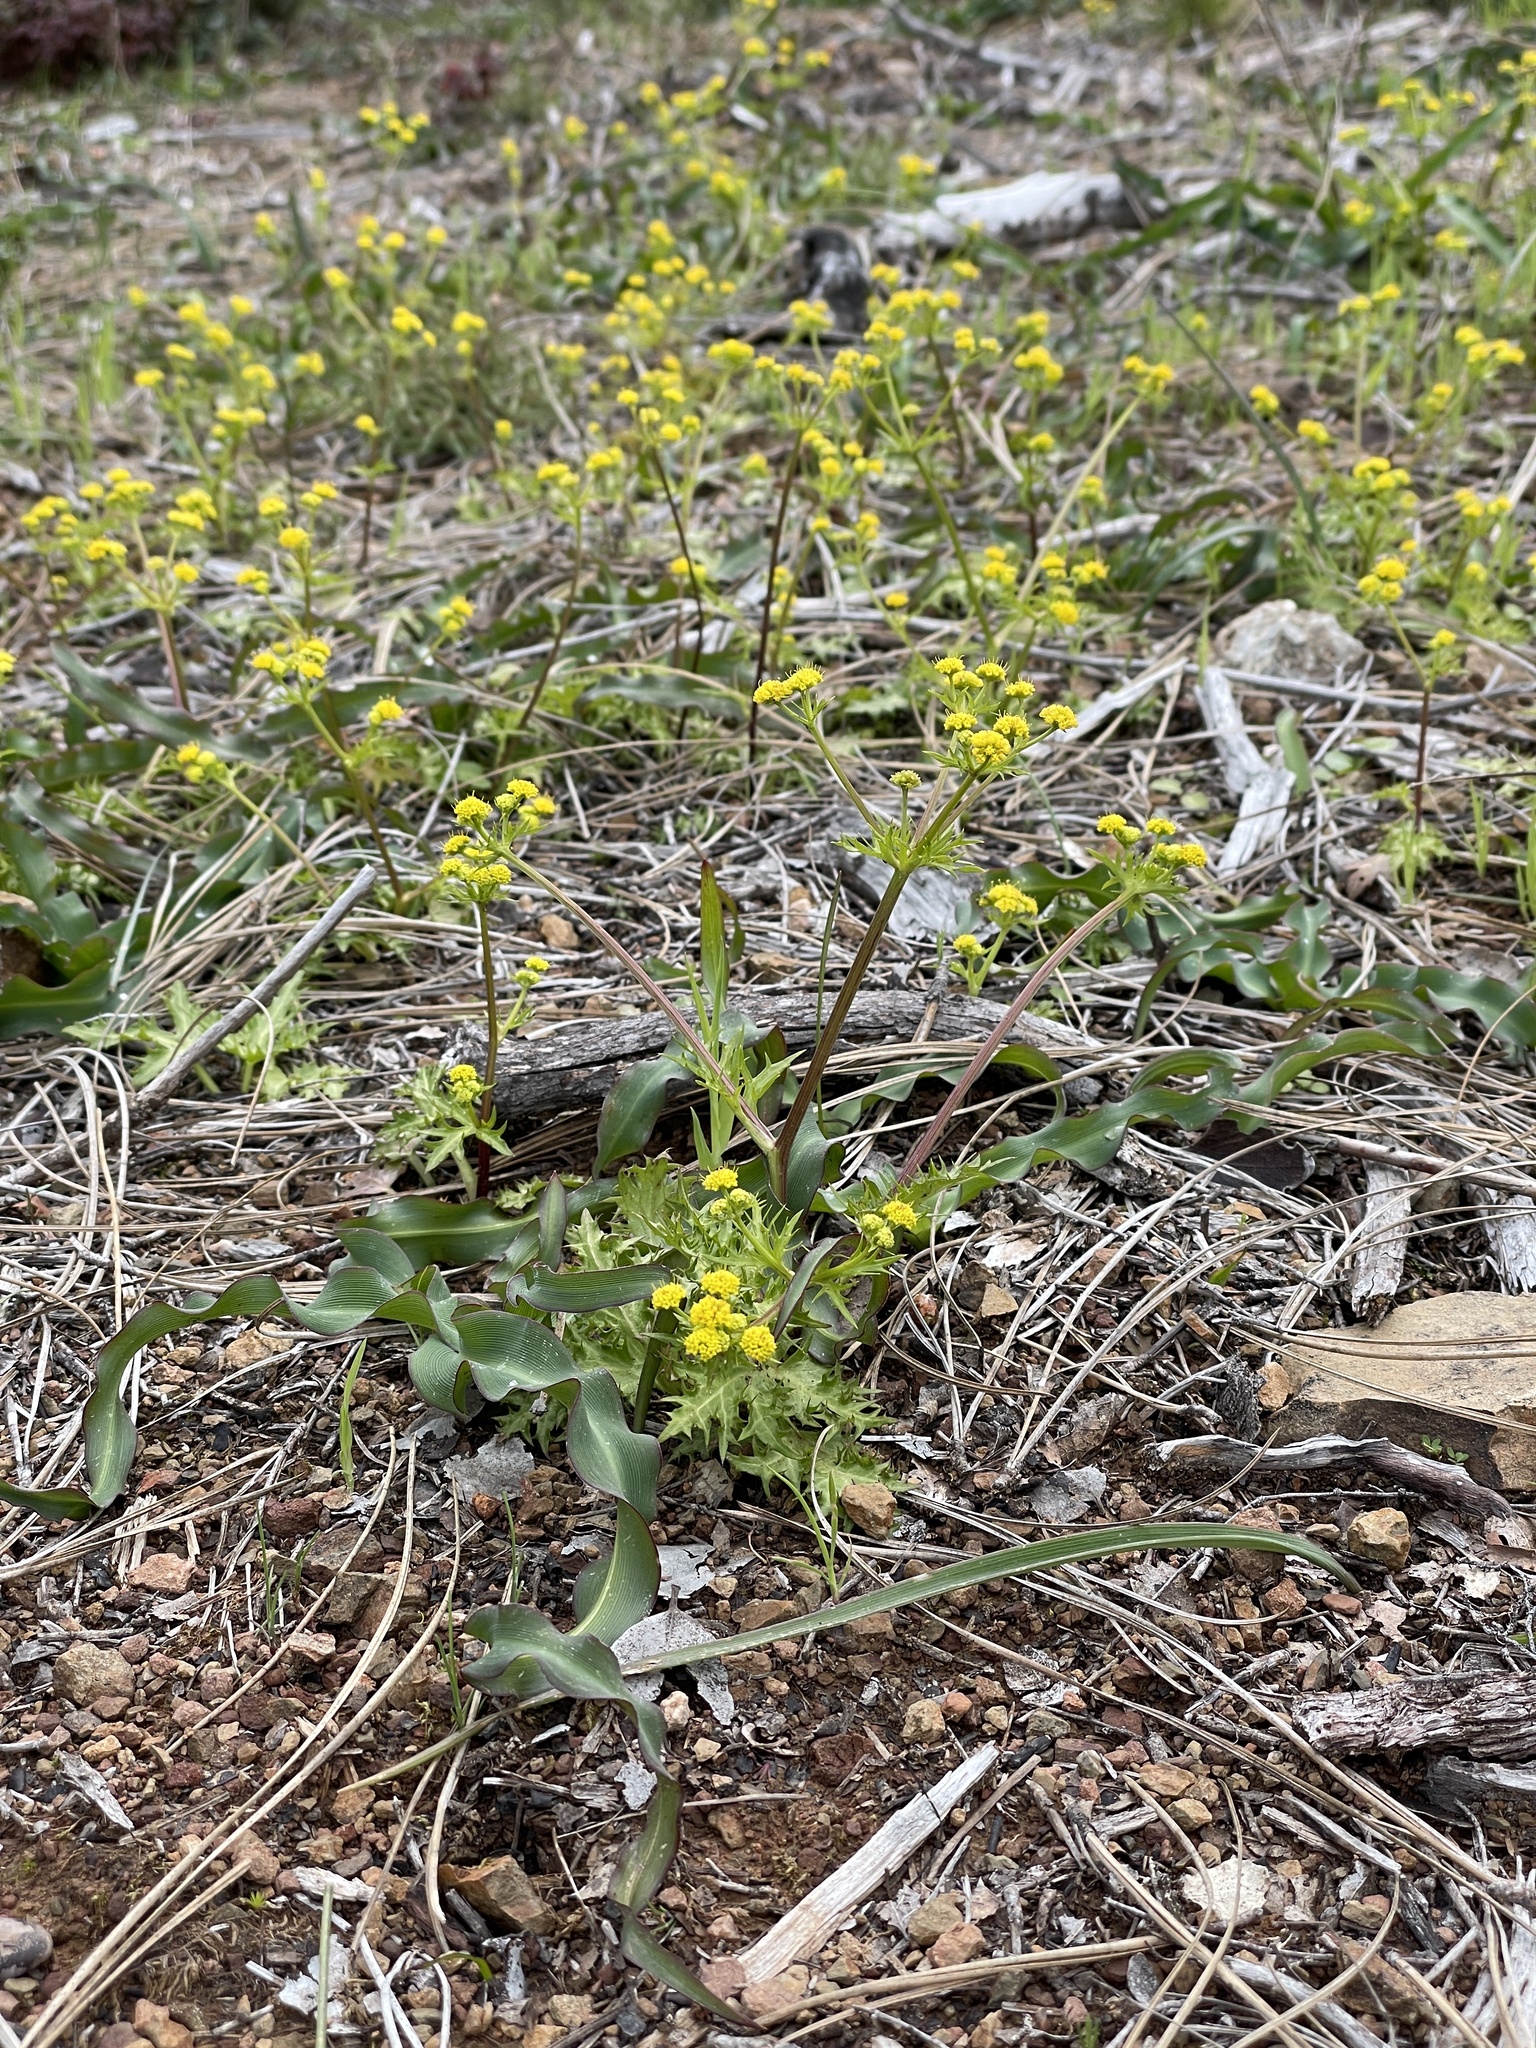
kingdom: Plantae
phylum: Tracheophyta
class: Magnoliopsida
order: Apiales
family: Apiaceae
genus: Sanicula
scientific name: Sanicula laciniata
